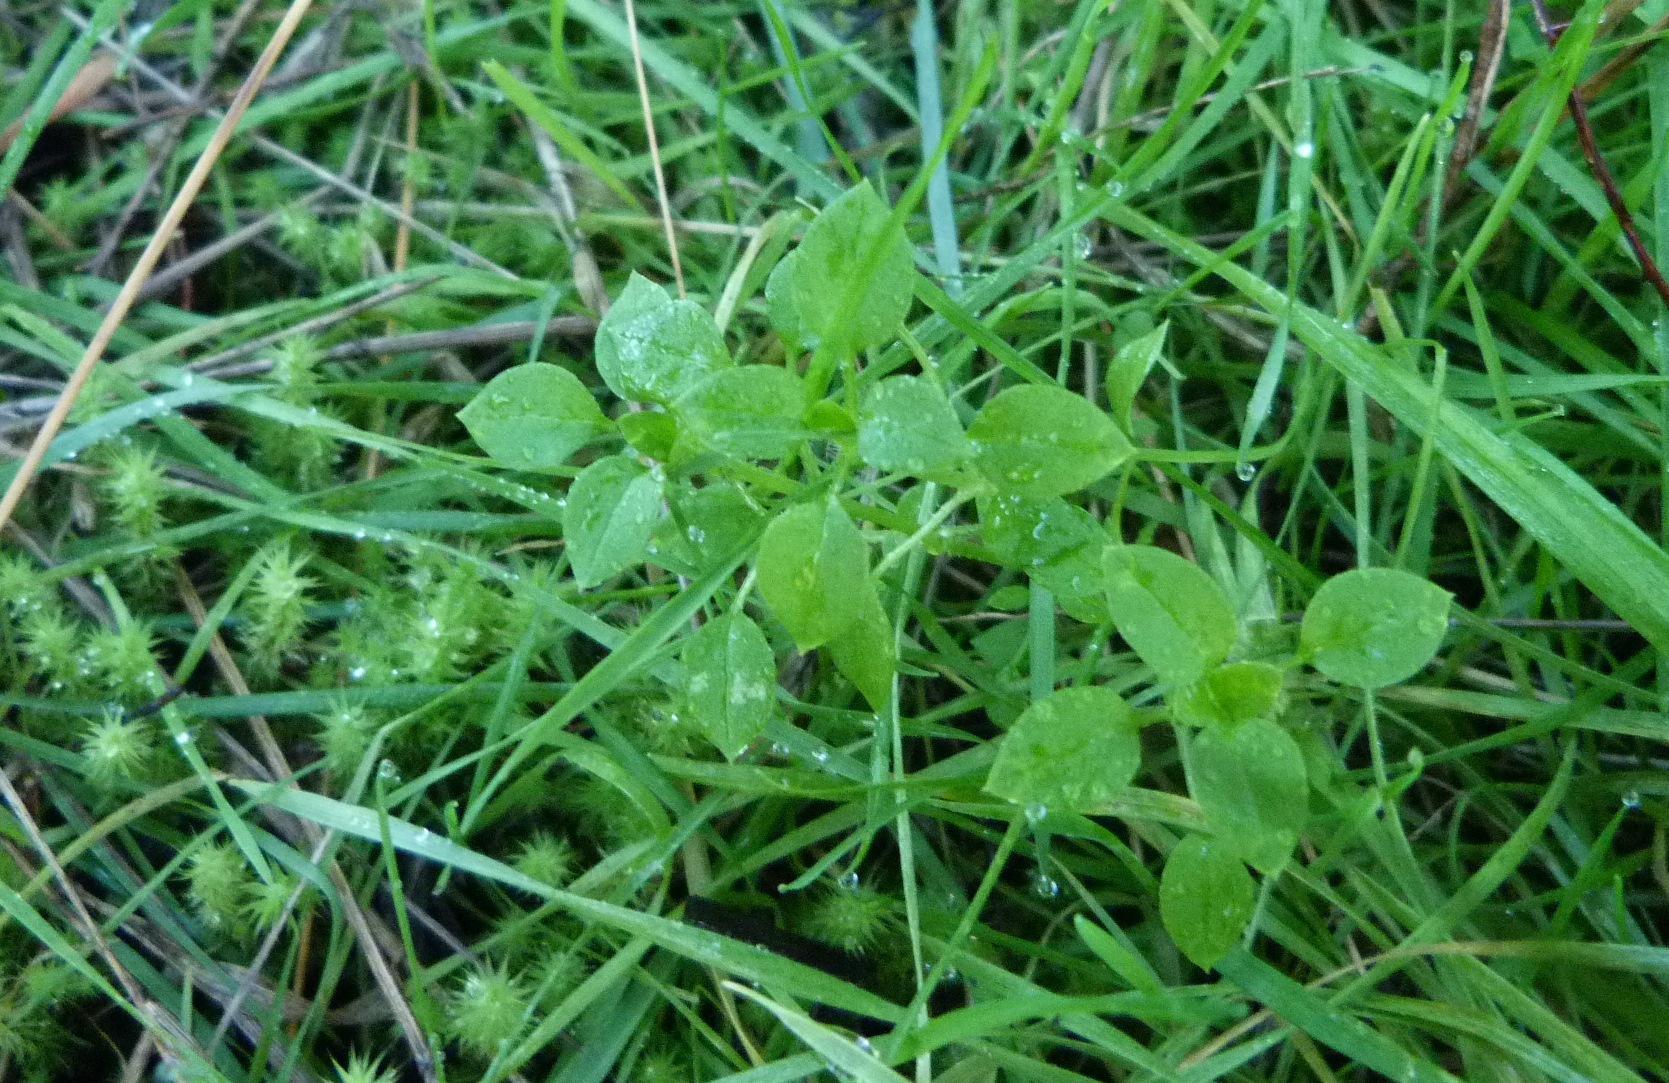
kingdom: Plantae
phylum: Tracheophyta
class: Magnoliopsida
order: Caryophyllales
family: Caryophyllaceae
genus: Stellaria
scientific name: Stellaria media
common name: Common chickweed
